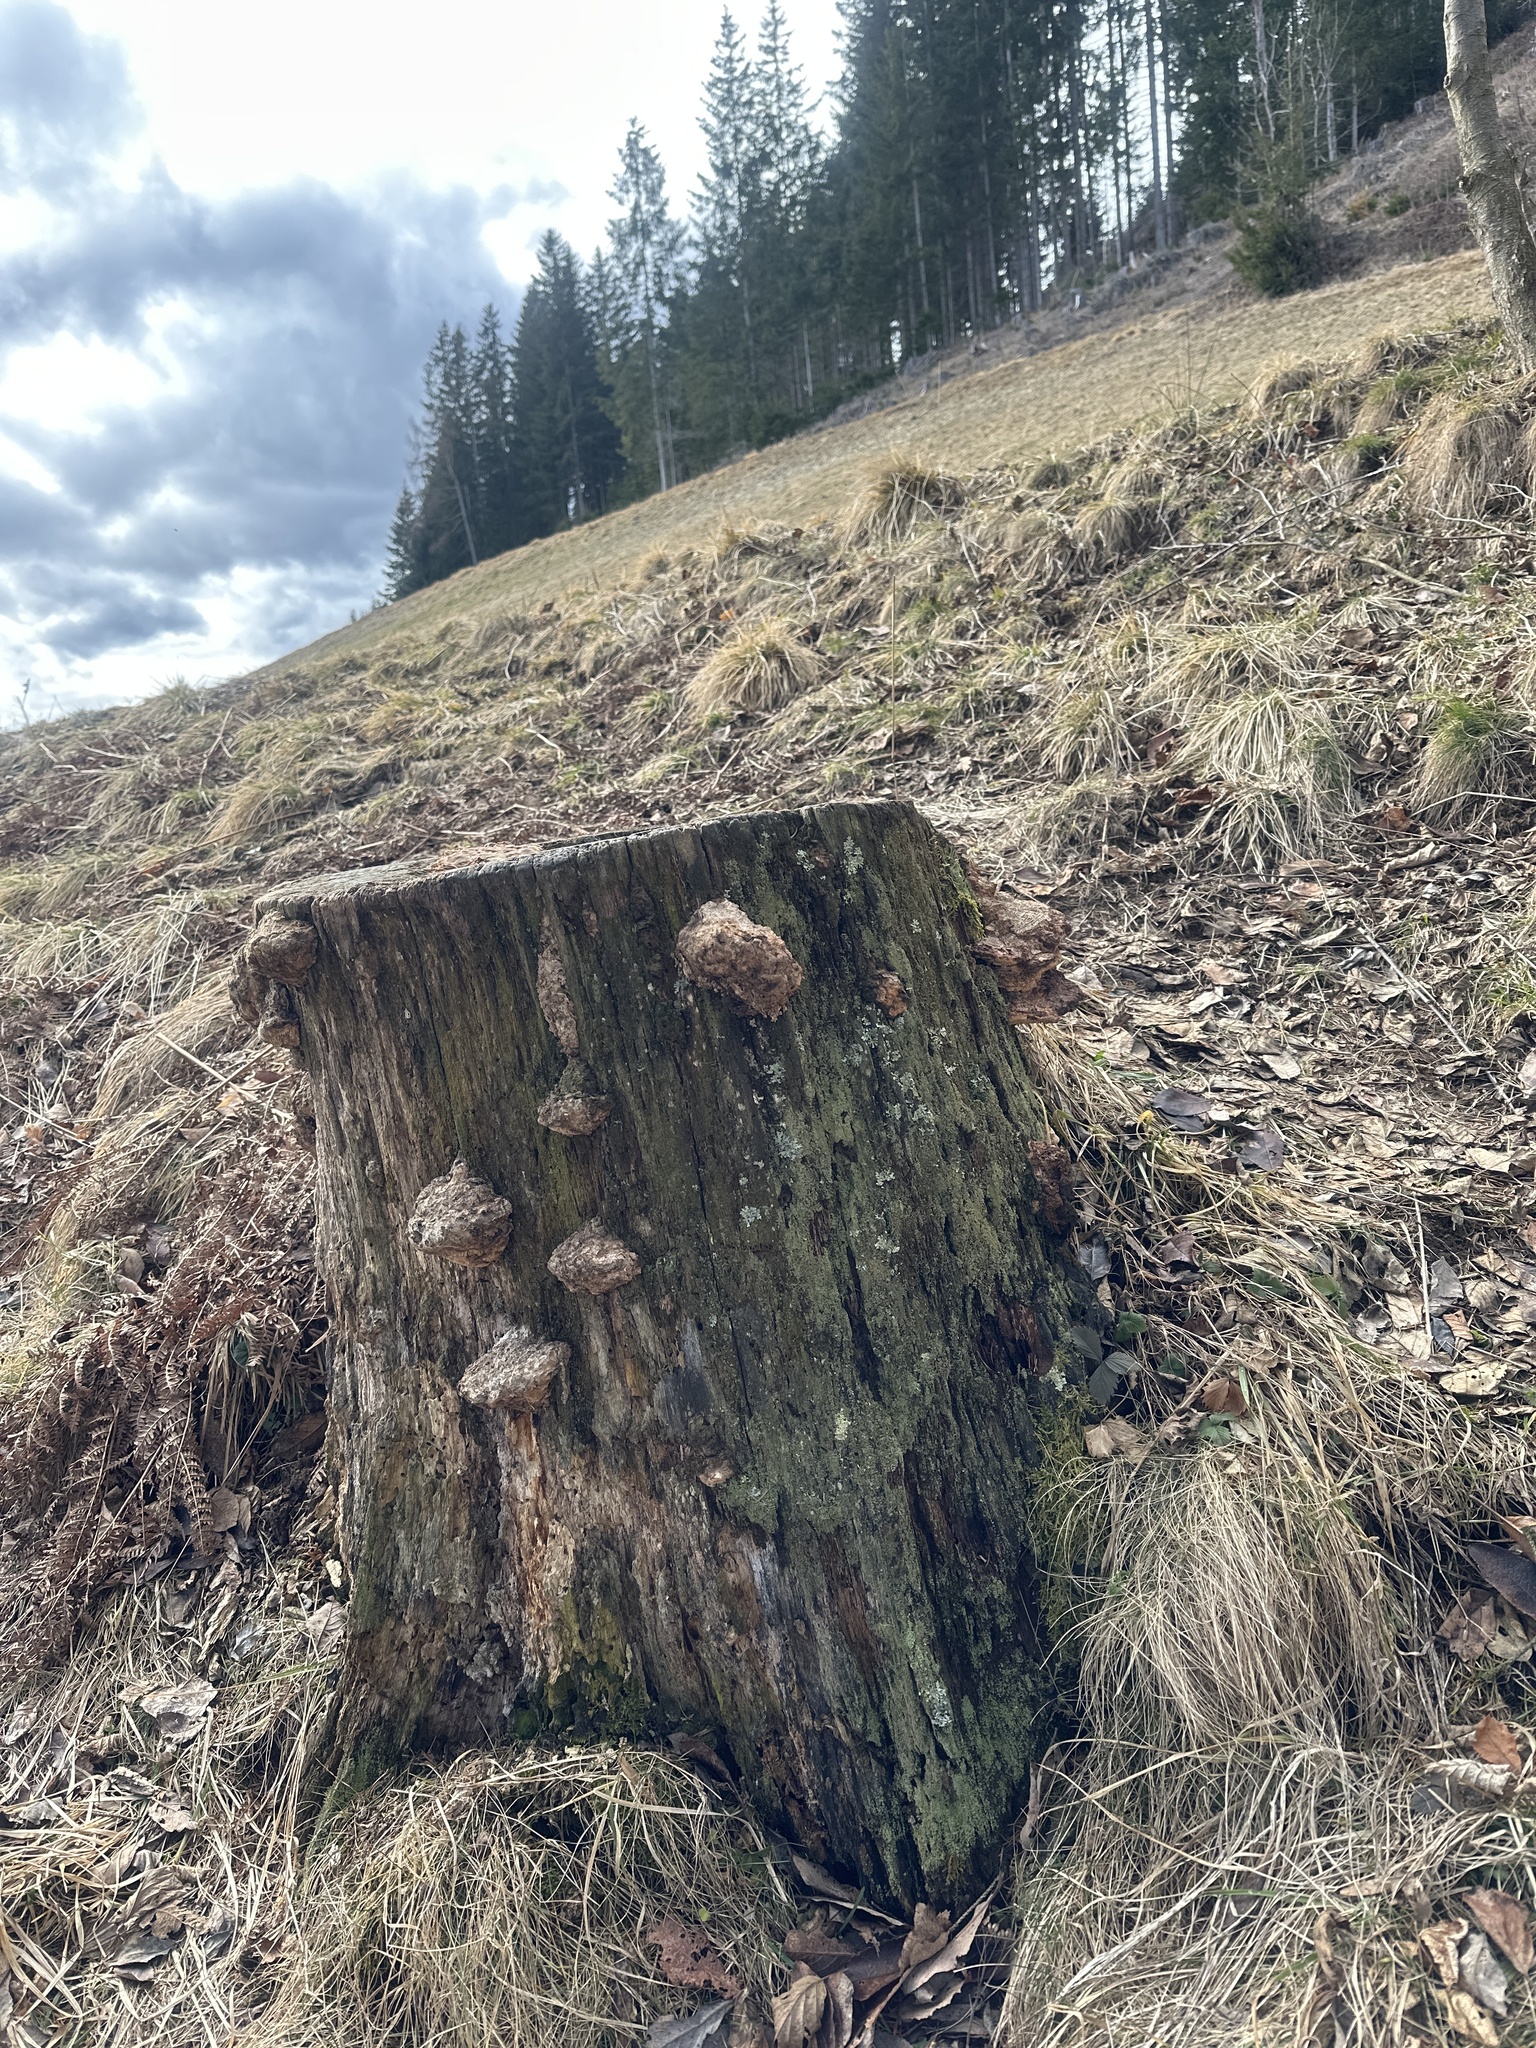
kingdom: Fungi
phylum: Basidiomycota
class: Agaricomycetes
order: Gloeophyllales
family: Gloeophyllaceae
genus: Gloeophyllum
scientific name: Gloeophyllum odoratum
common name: Anise mazegill
